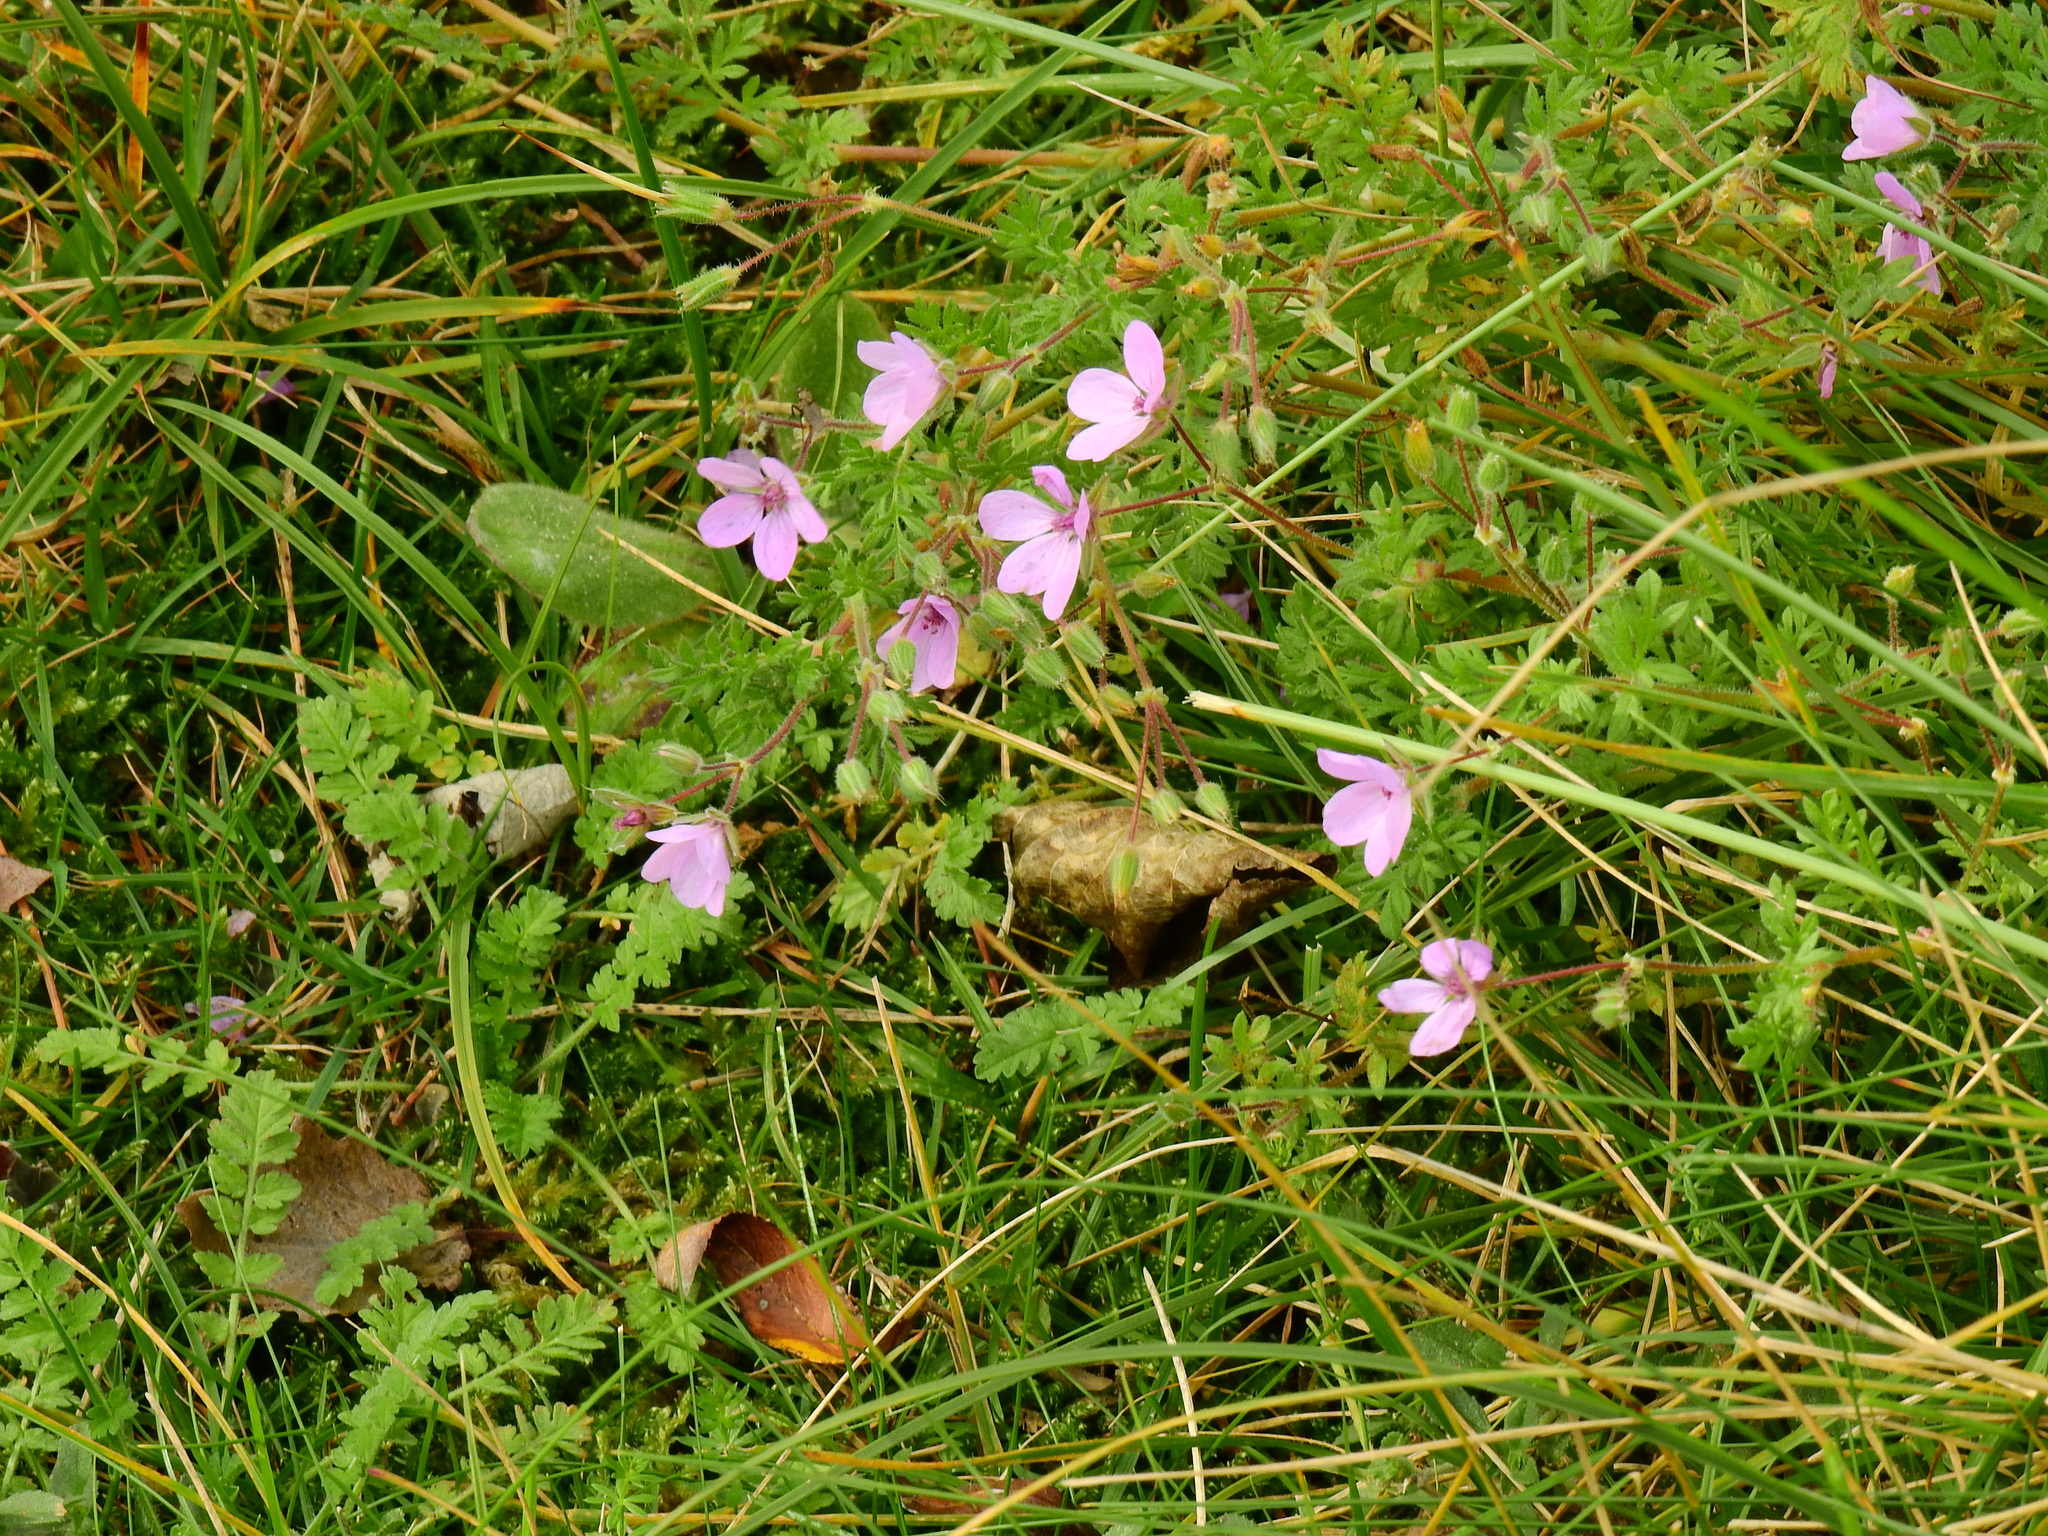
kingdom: Plantae
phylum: Tracheophyta
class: Magnoliopsida
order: Geraniales
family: Geraniaceae
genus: Erodium
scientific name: Erodium cicutarium
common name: Common stork's-bill
